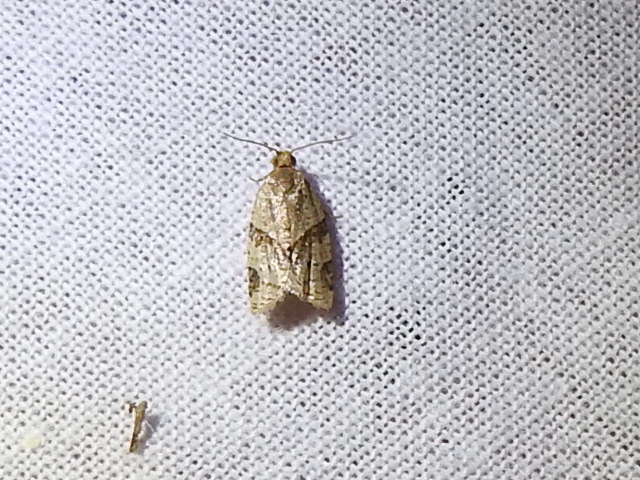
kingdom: Animalia
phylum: Arthropoda
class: Insecta
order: Lepidoptera
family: Tortricidae
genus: Clepsis
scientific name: Clepsis peritana
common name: Garden tortrix
